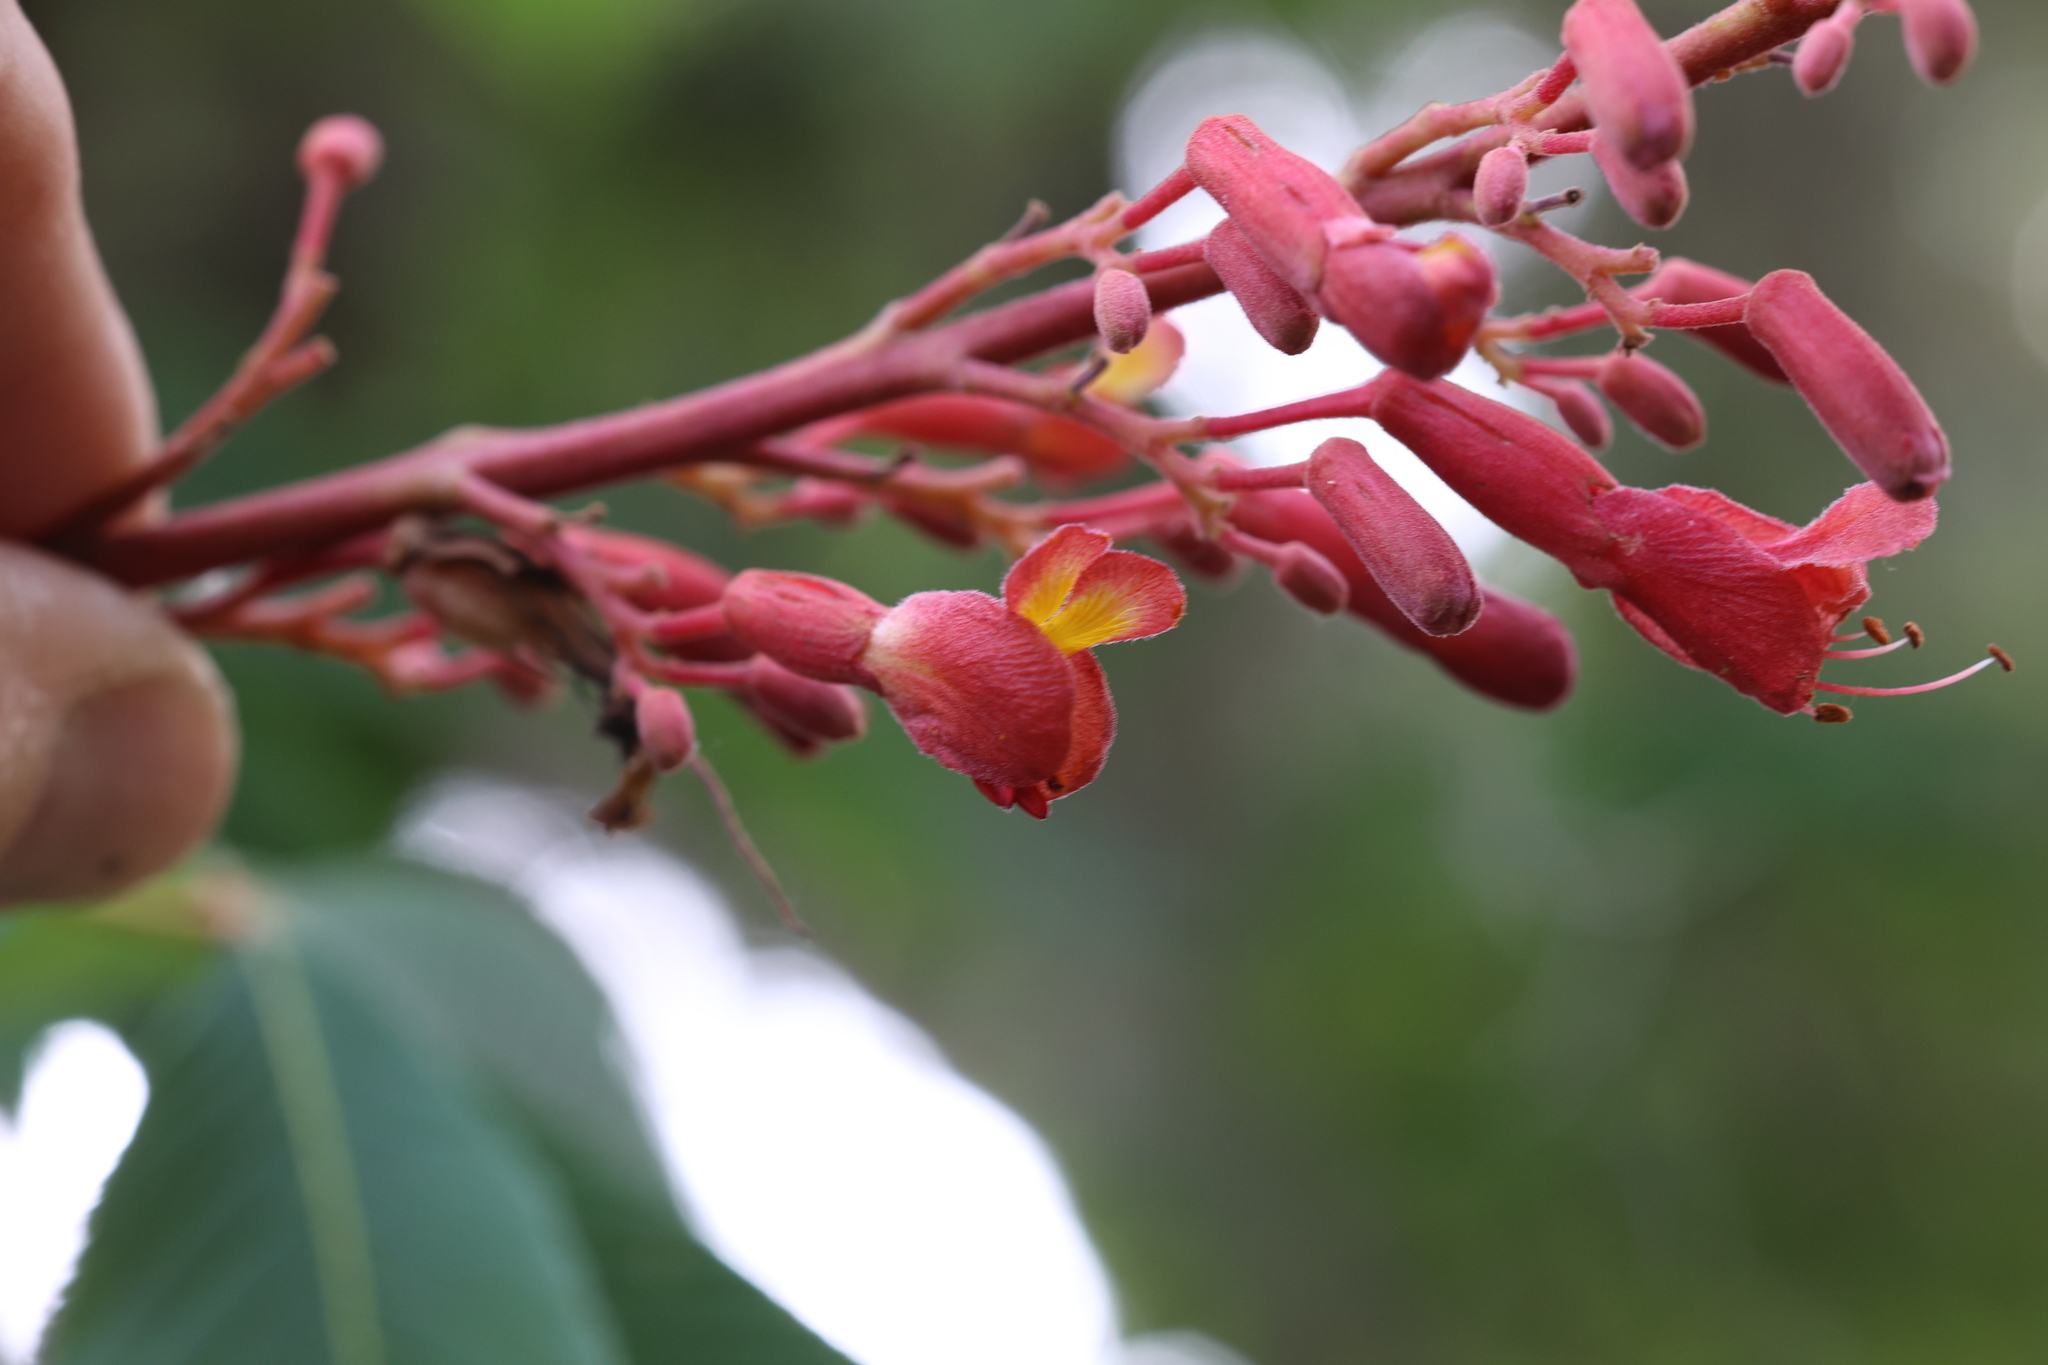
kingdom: Plantae
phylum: Tracheophyta
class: Magnoliopsida
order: Sapindales
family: Sapindaceae
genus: Aesculus
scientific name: Aesculus pavia
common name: Red buckeye
